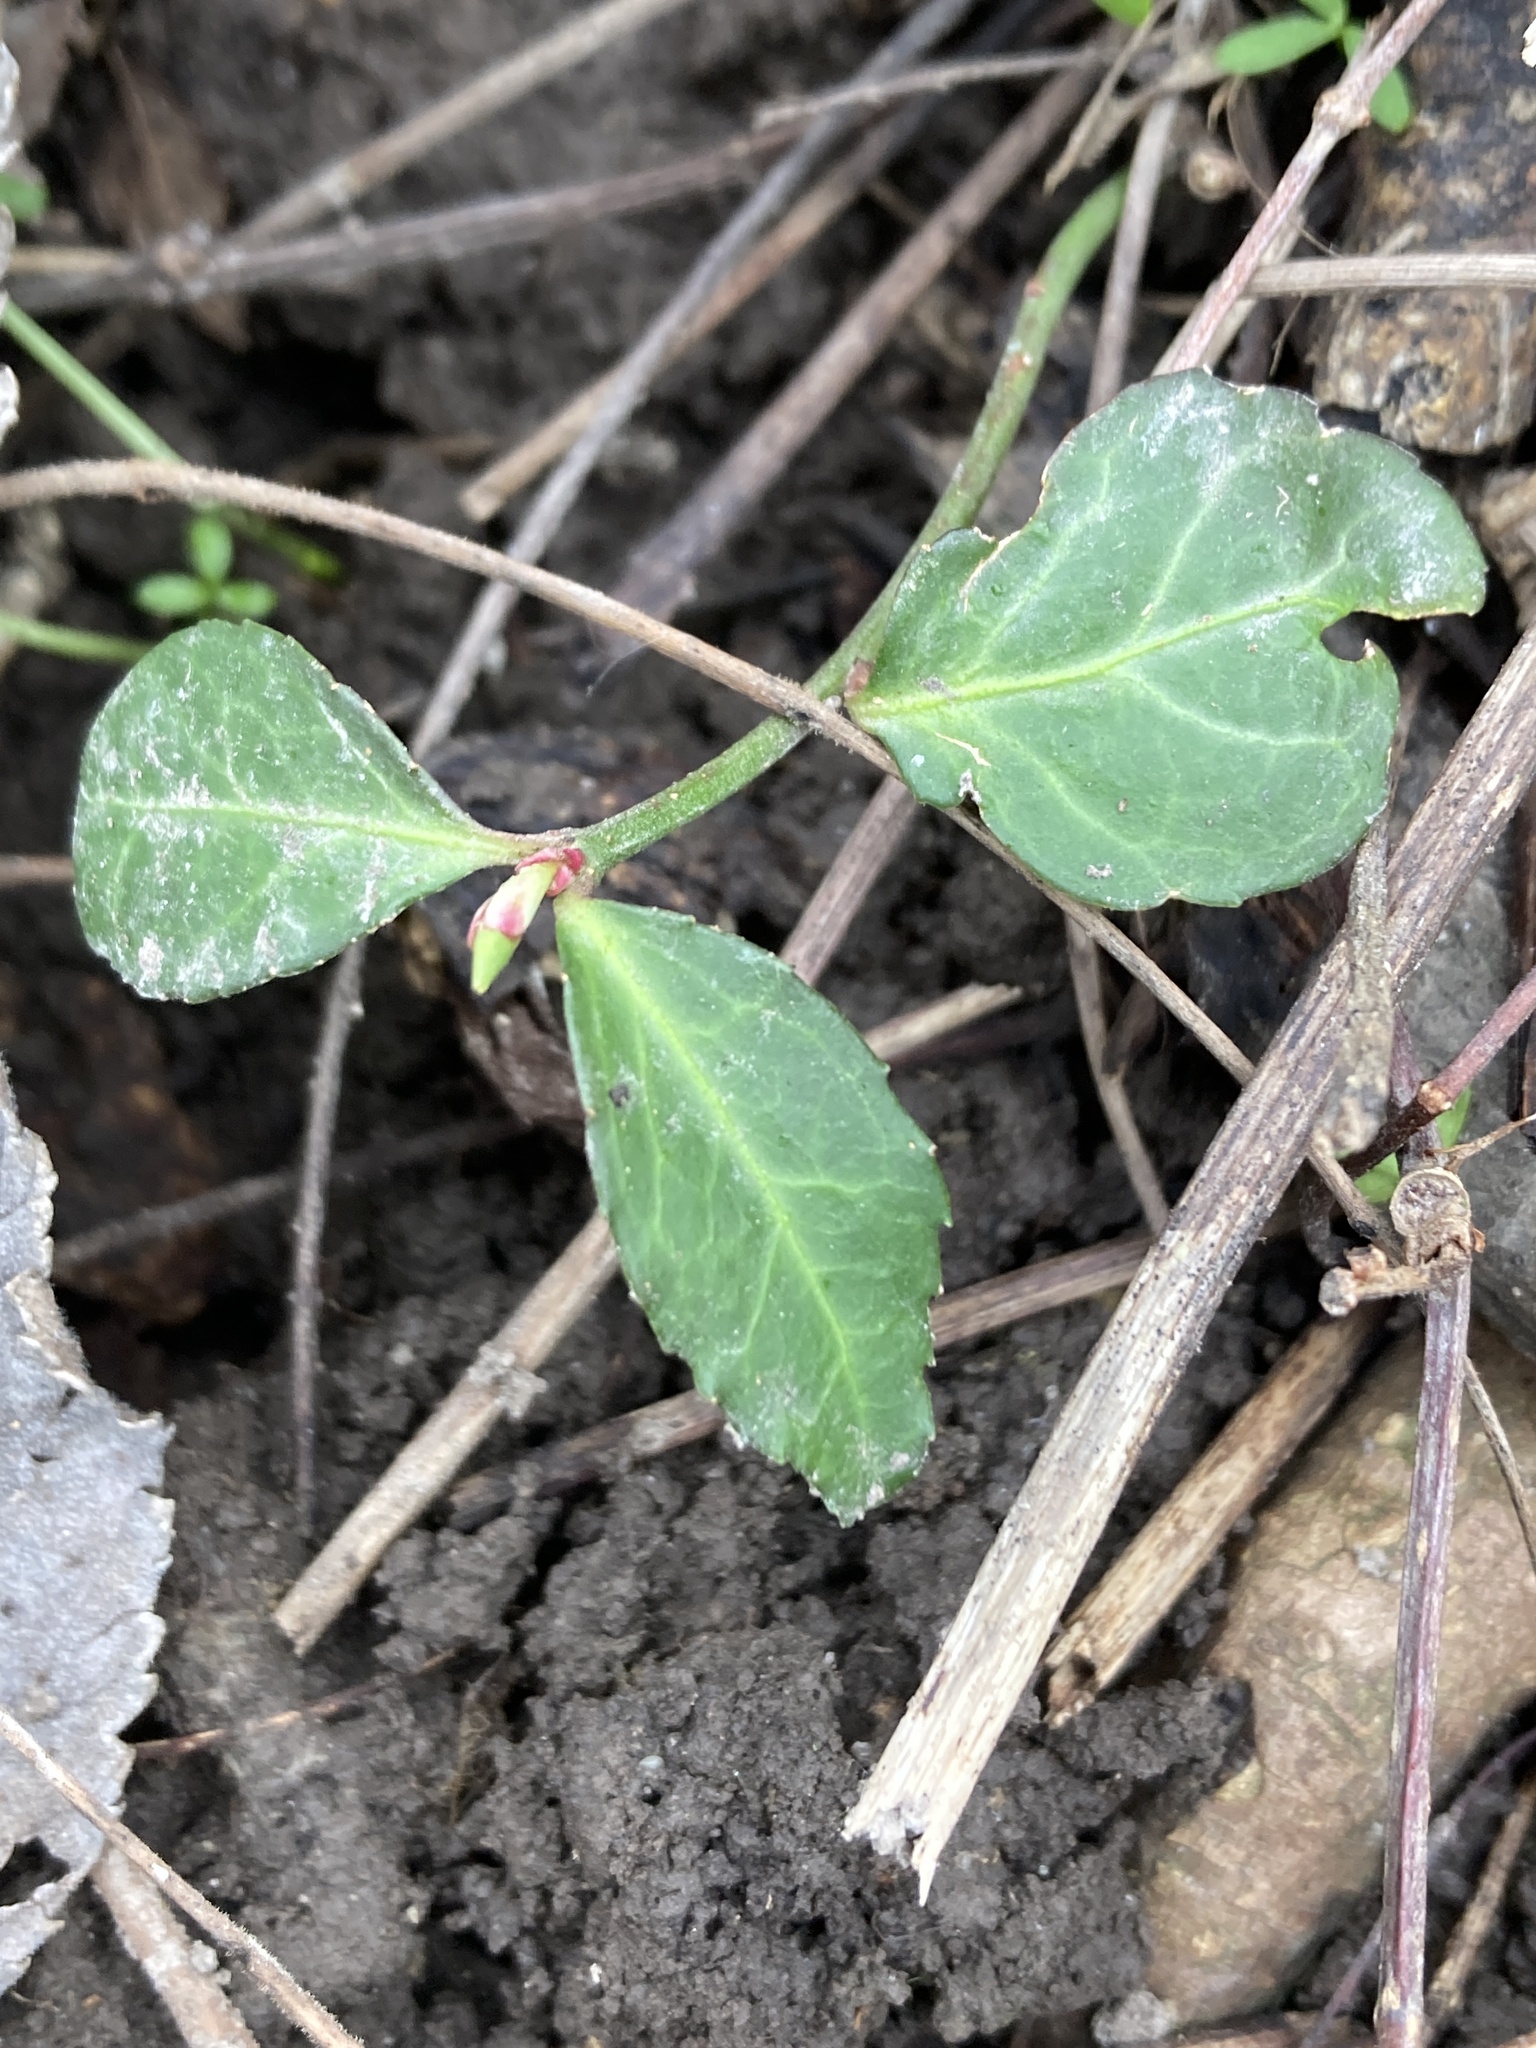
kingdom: Plantae
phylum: Tracheophyta
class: Magnoliopsida
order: Celastrales
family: Celastraceae
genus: Euonymus
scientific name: Euonymus fortunei
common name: Climbing euonymus
